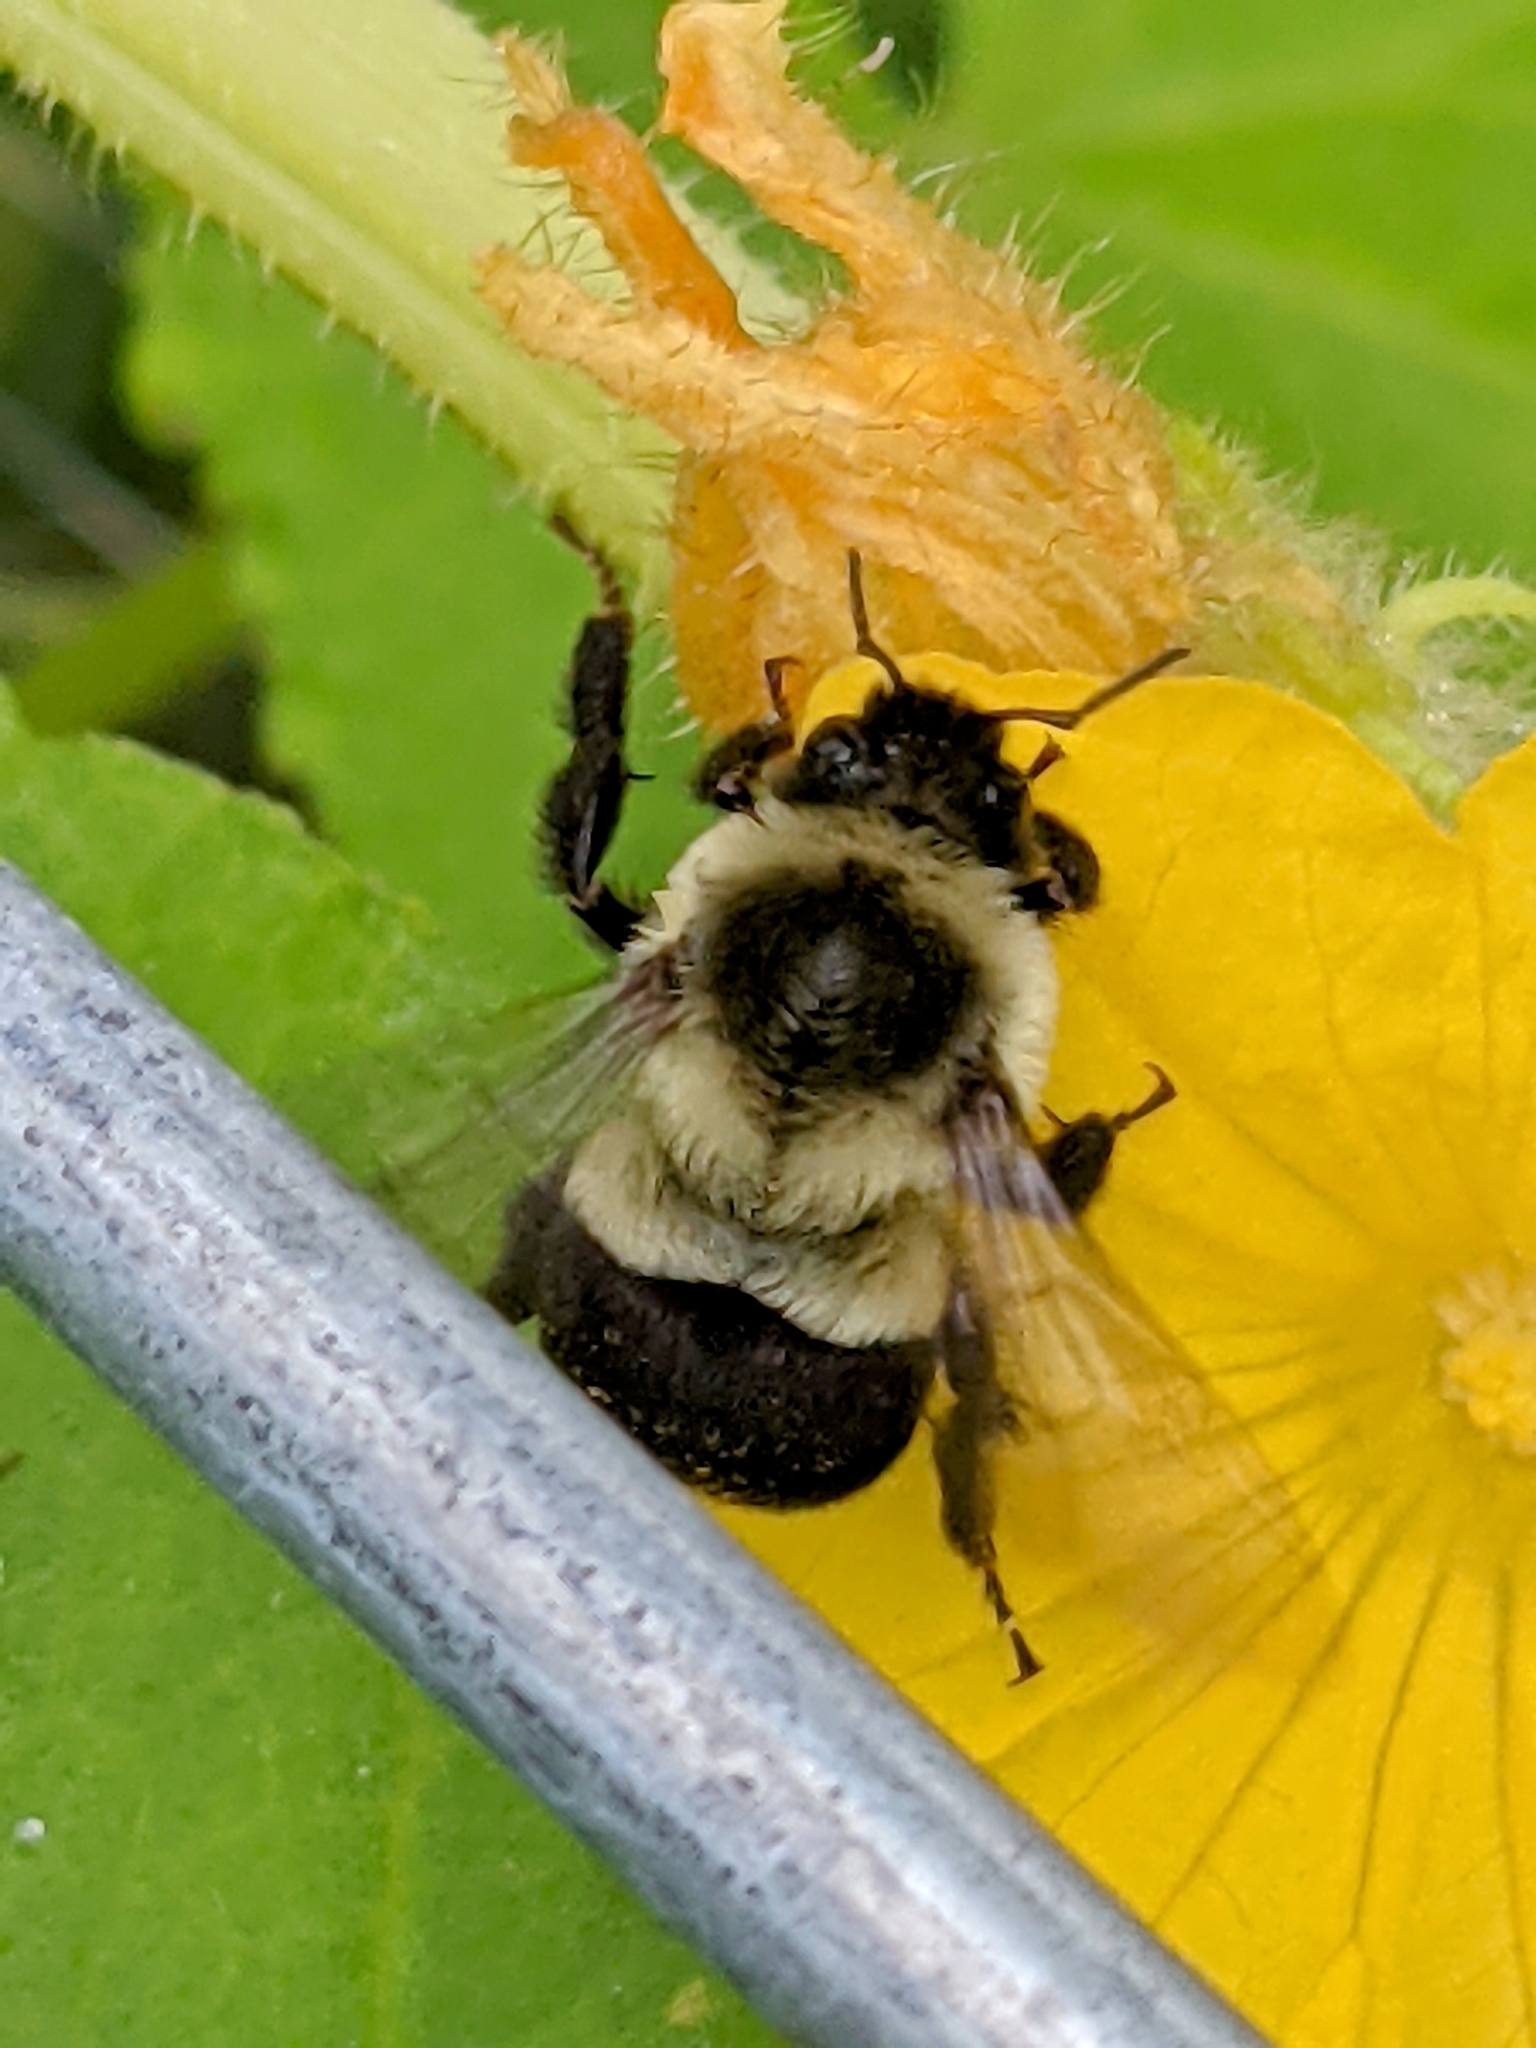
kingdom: Animalia
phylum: Arthropoda
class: Insecta
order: Hymenoptera
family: Apidae
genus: Bombus
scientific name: Bombus impatiens
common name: Common eastern bumble bee
